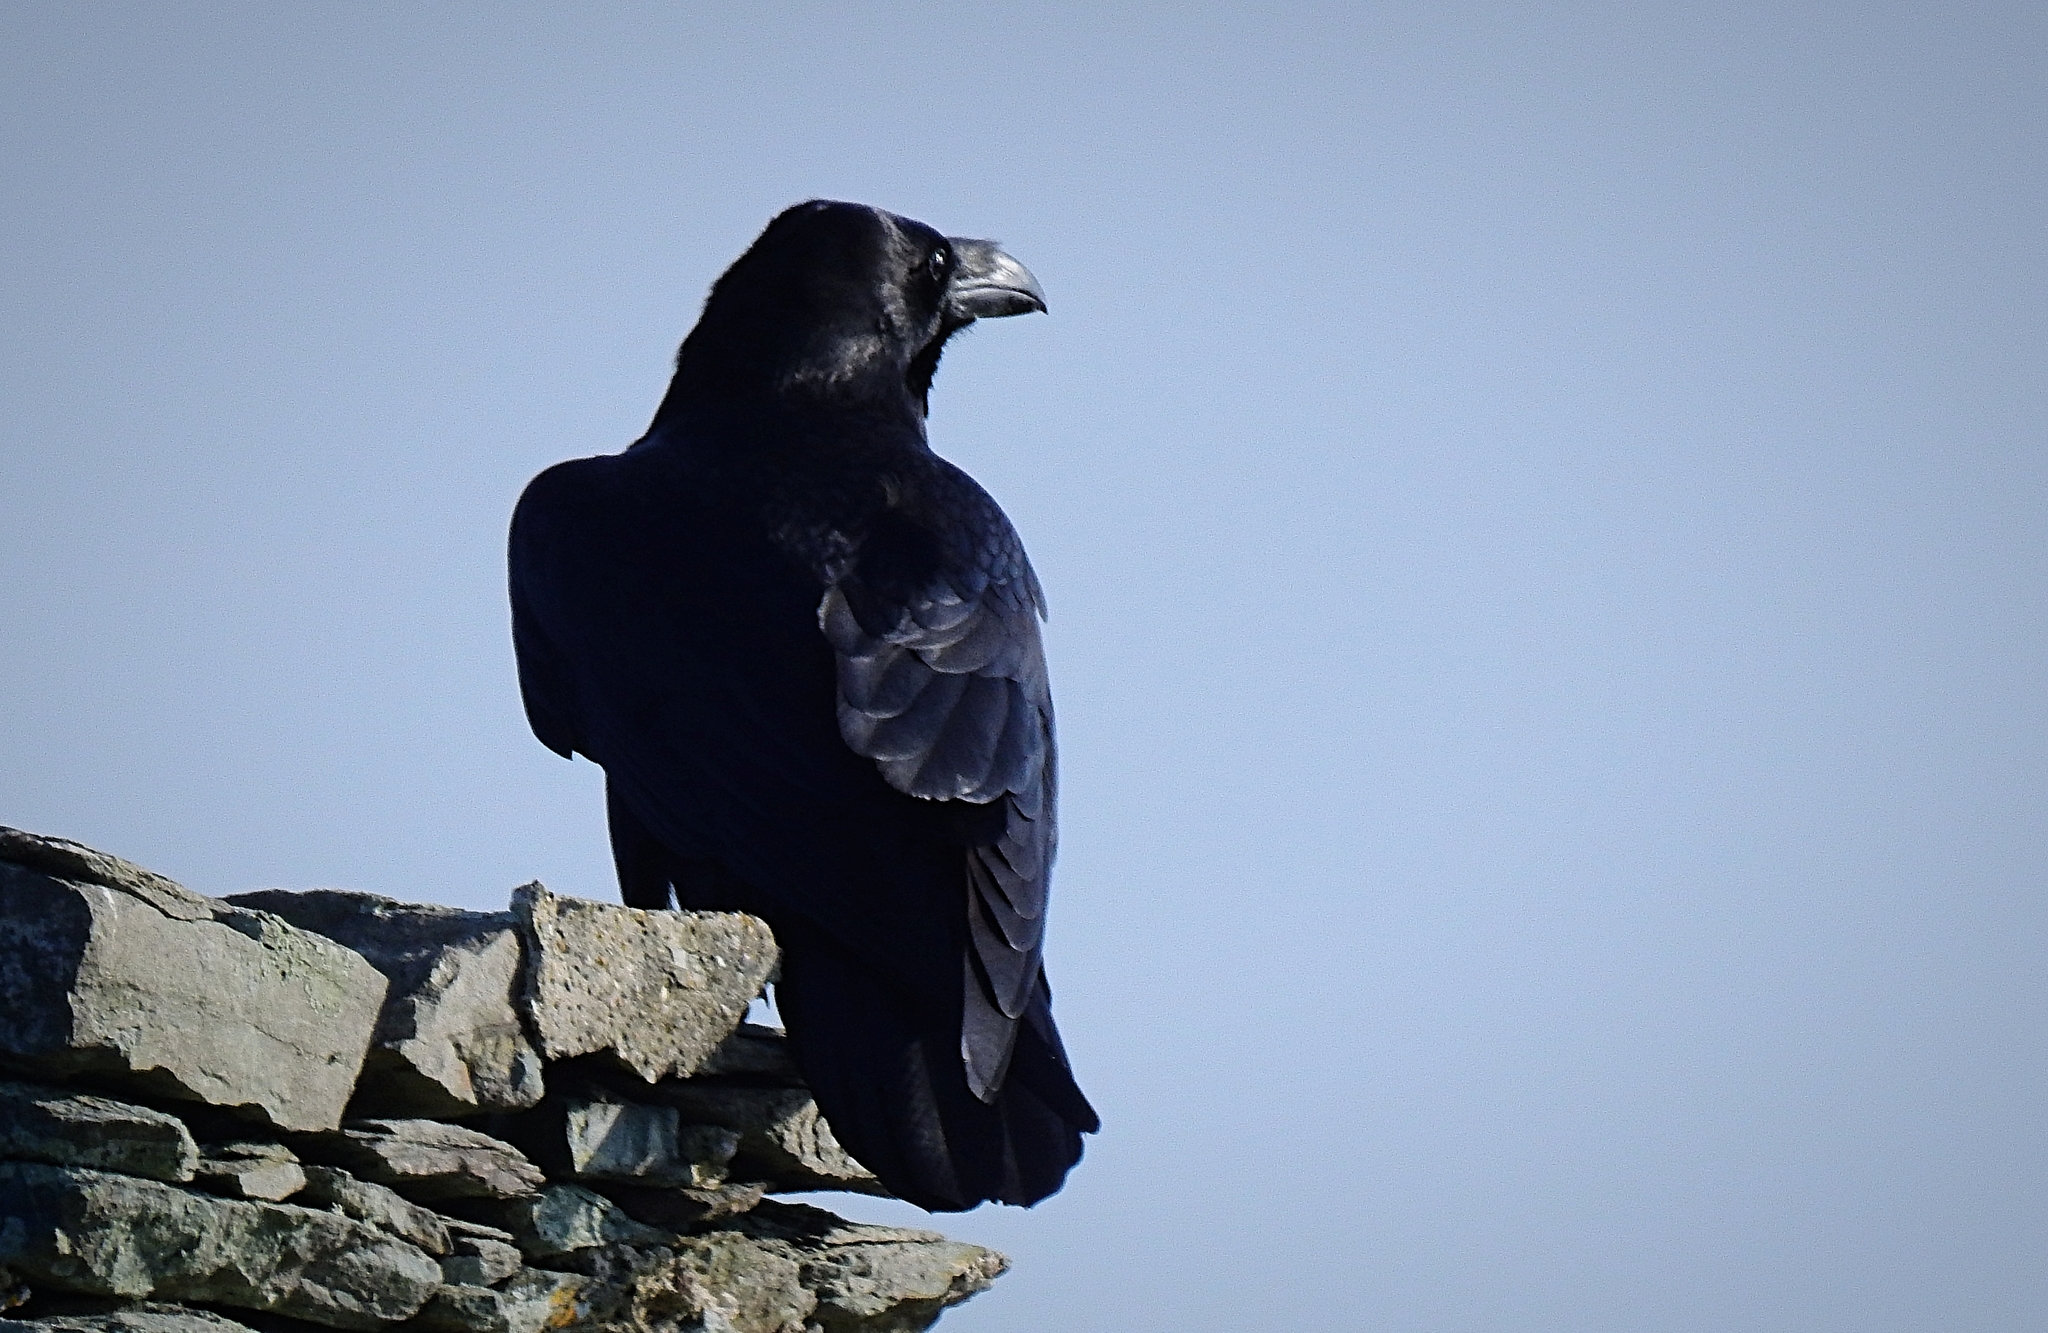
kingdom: Animalia
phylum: Chordata
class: Aves
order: Passeriformes
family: Corvidae
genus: Corvus
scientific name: Corvus corax
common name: Common raven
